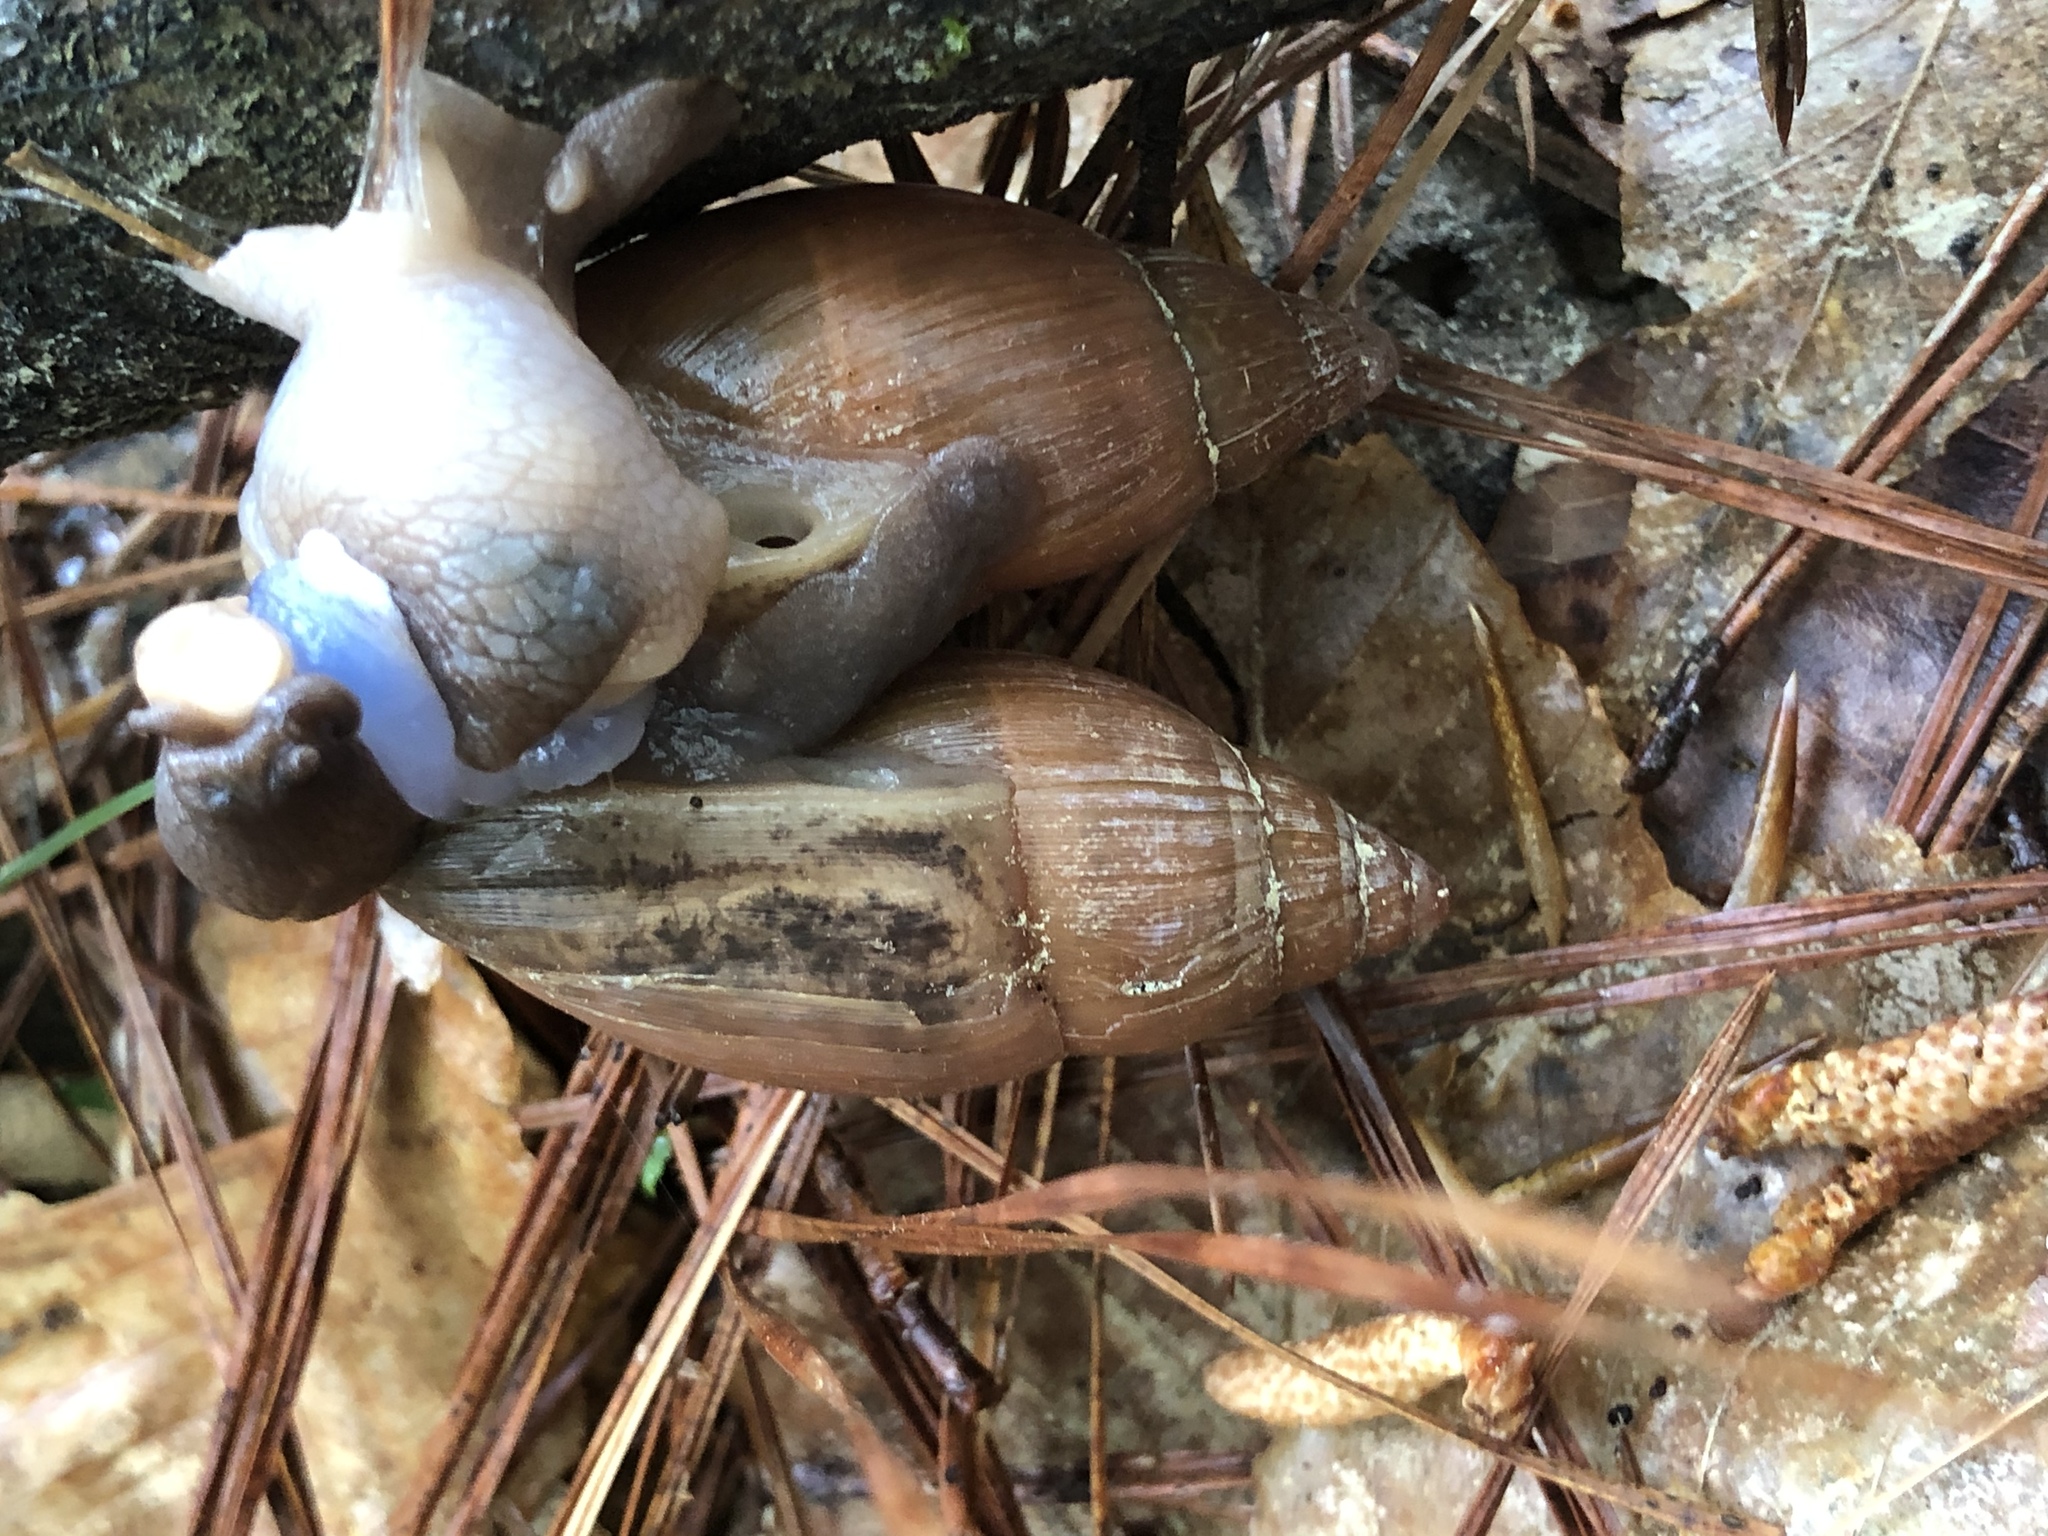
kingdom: Animalia
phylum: Mollusca
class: Gastropoda
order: Stylommatophora
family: Spiraxidae
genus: Euglandina
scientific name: Euglandina rosea
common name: Rosy wolfsnail
